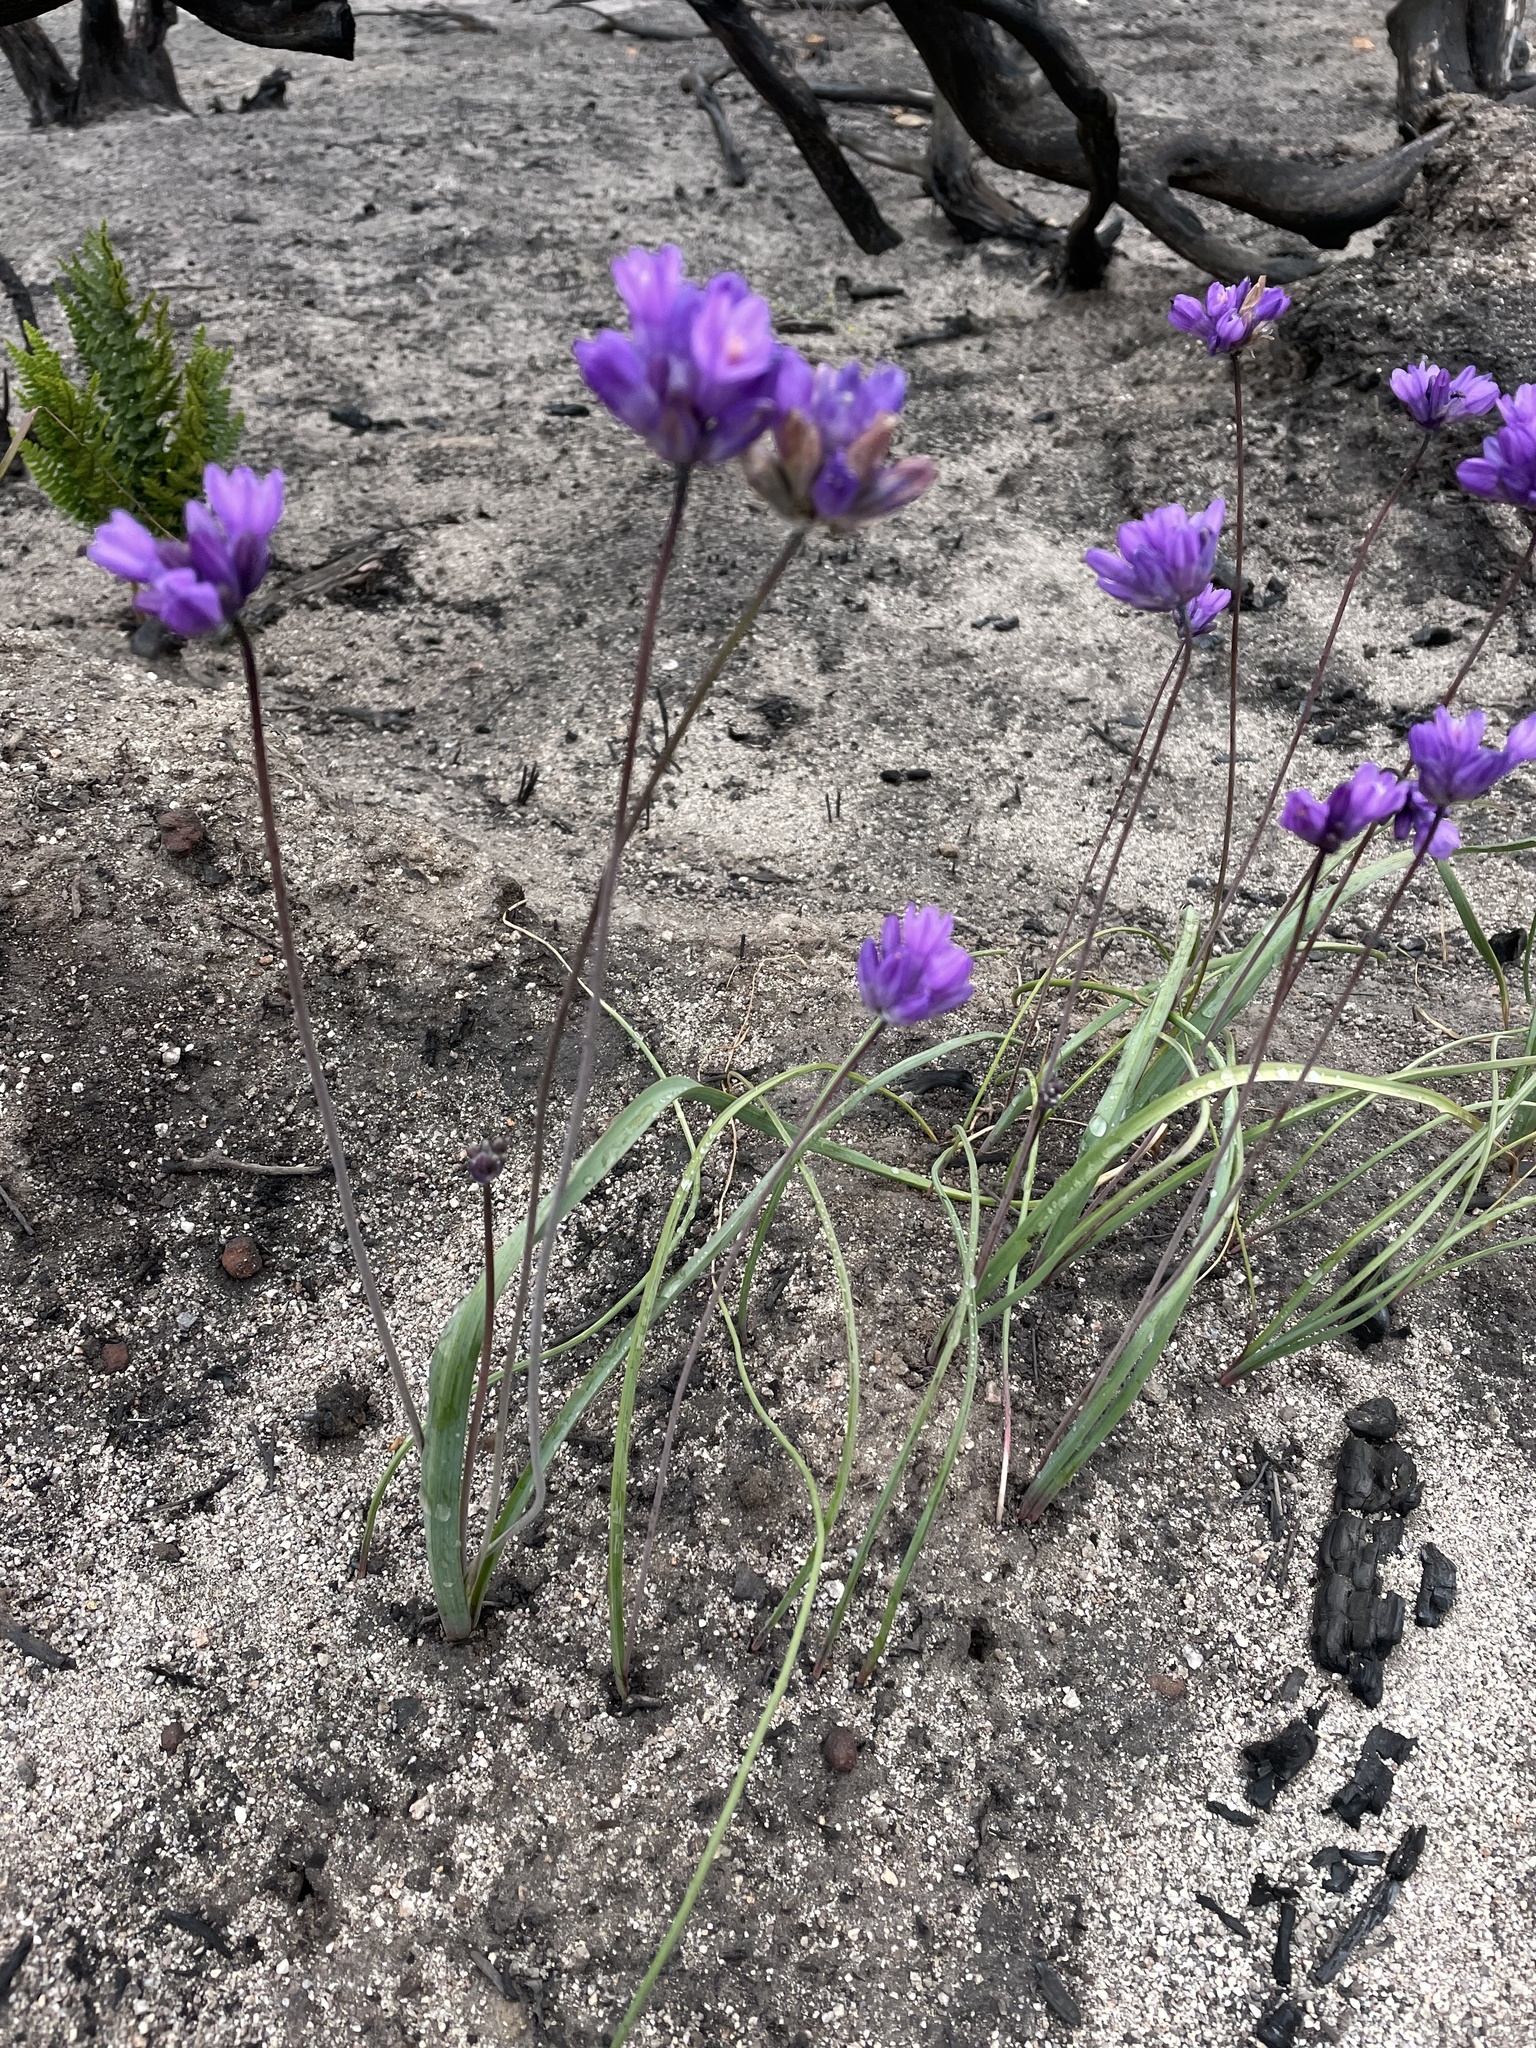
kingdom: Plantae
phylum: Tracheophyta
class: Liliopsida
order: Asparagales
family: Asparagaceae
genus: Dipterostemon
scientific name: Dipterostemon capitatus
